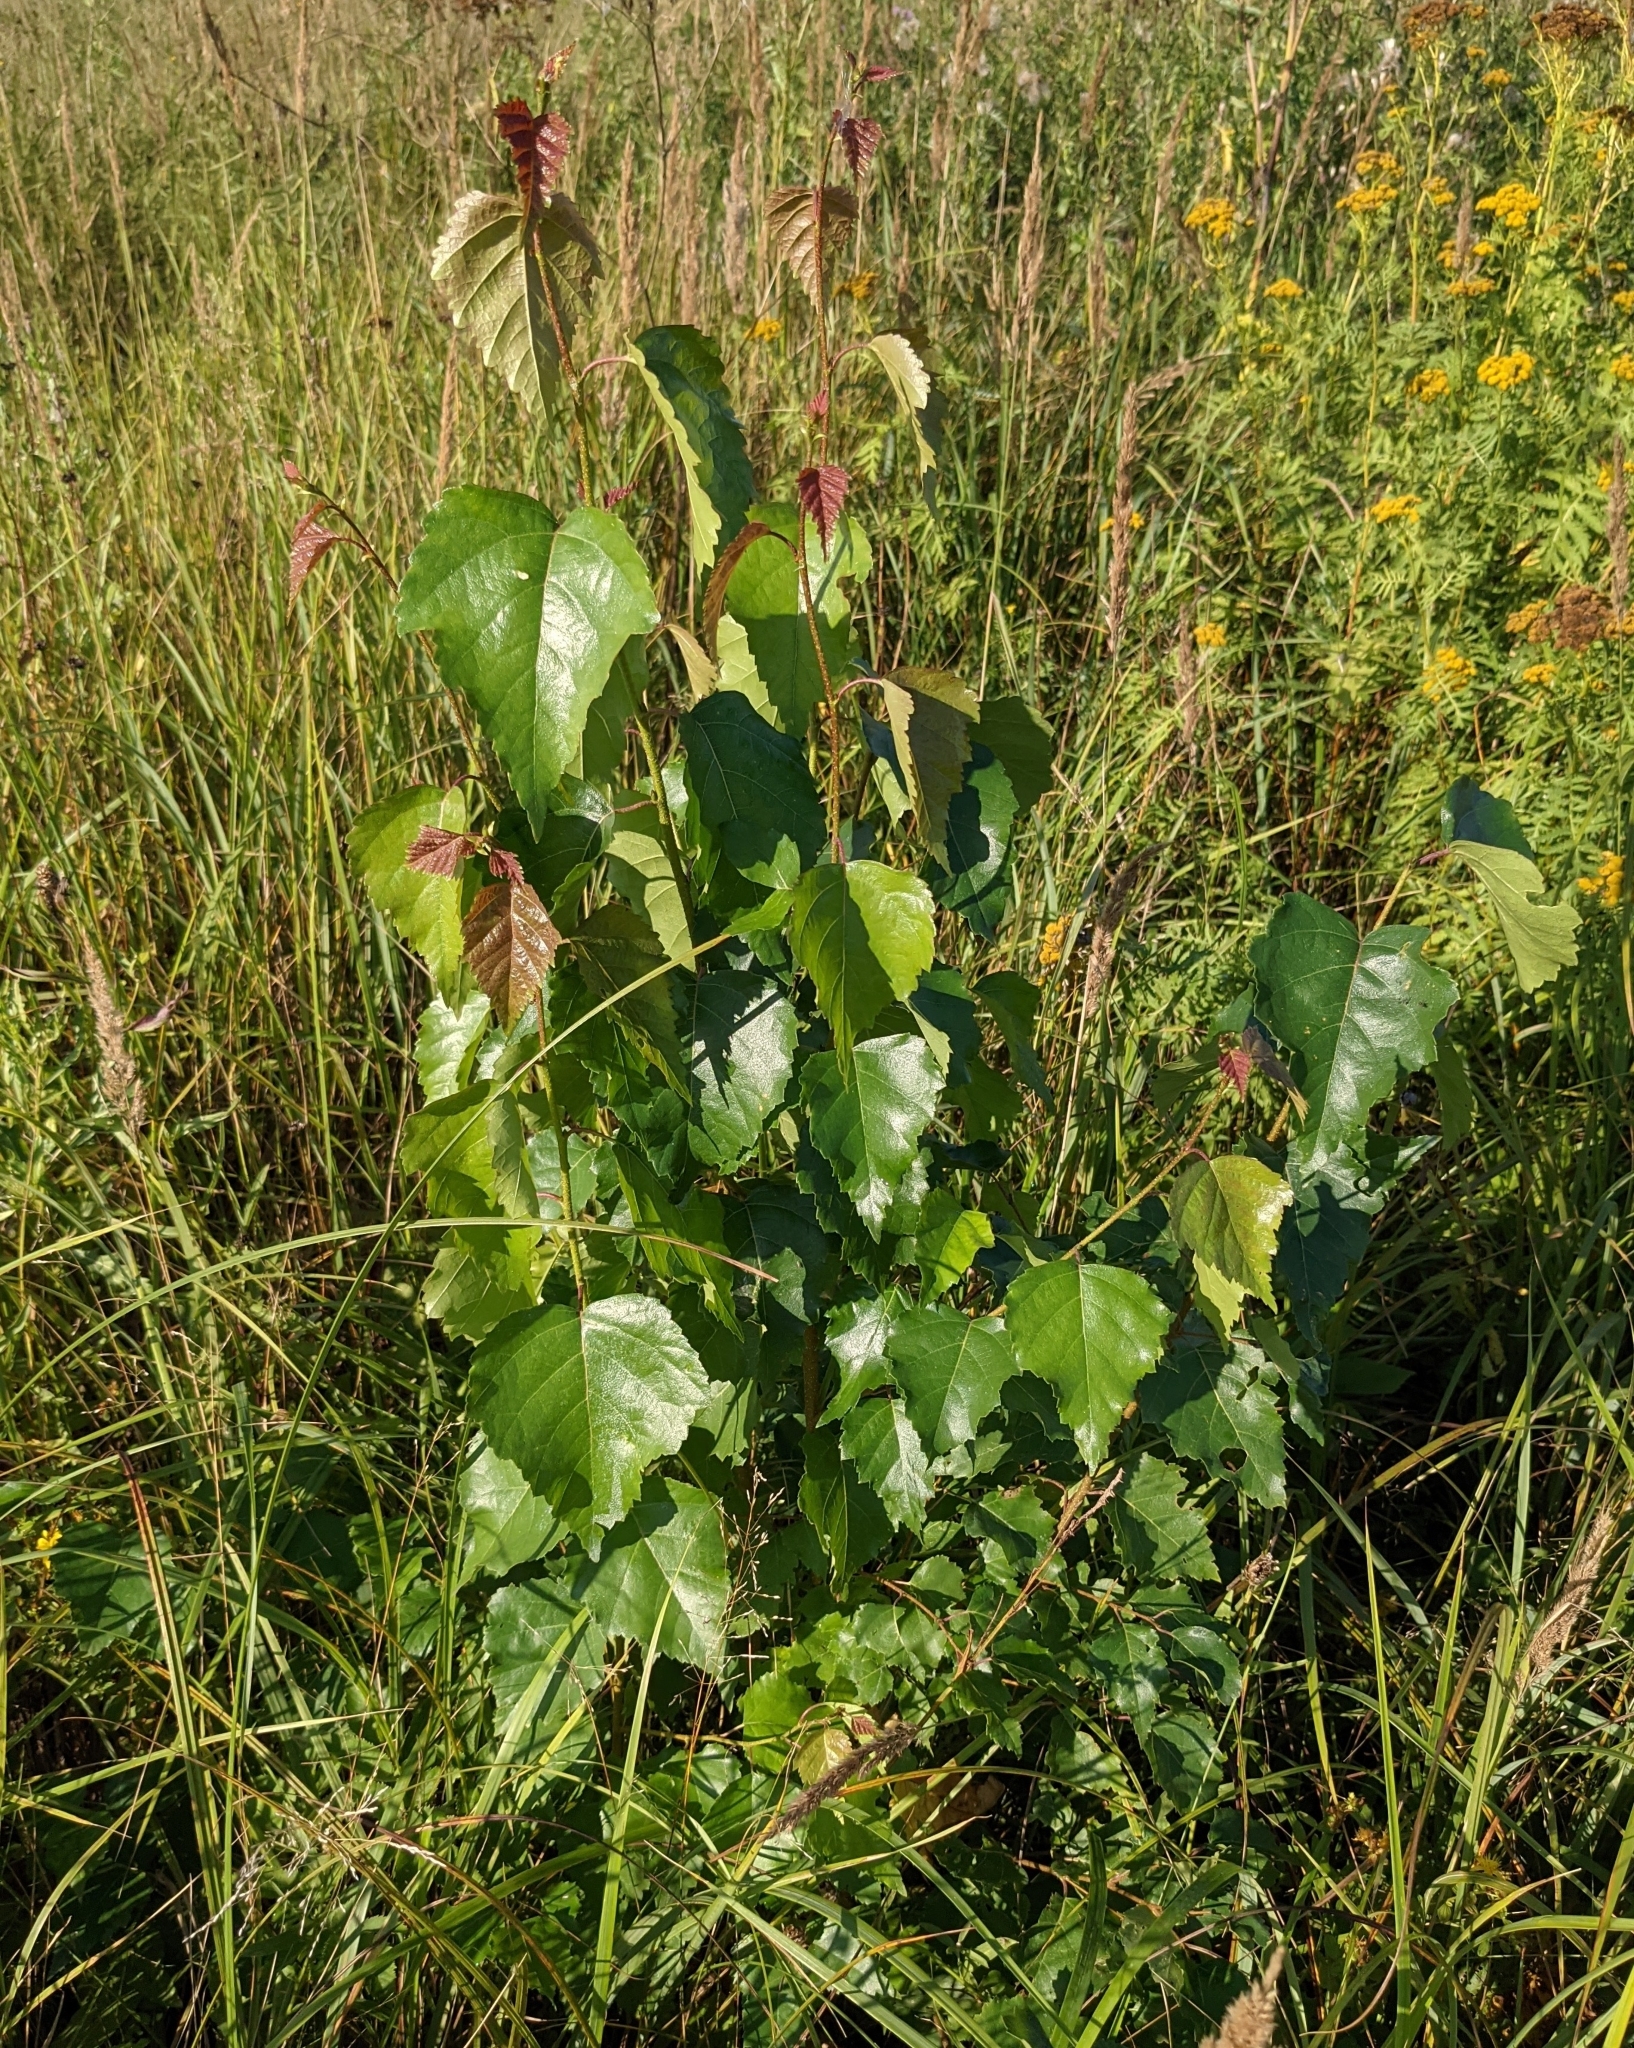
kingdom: Plantae
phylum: Tracheophyta
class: Magnoliopsida
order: Fagales
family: Betulaceae
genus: Betula
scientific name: Betula pendula
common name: Silver birch
